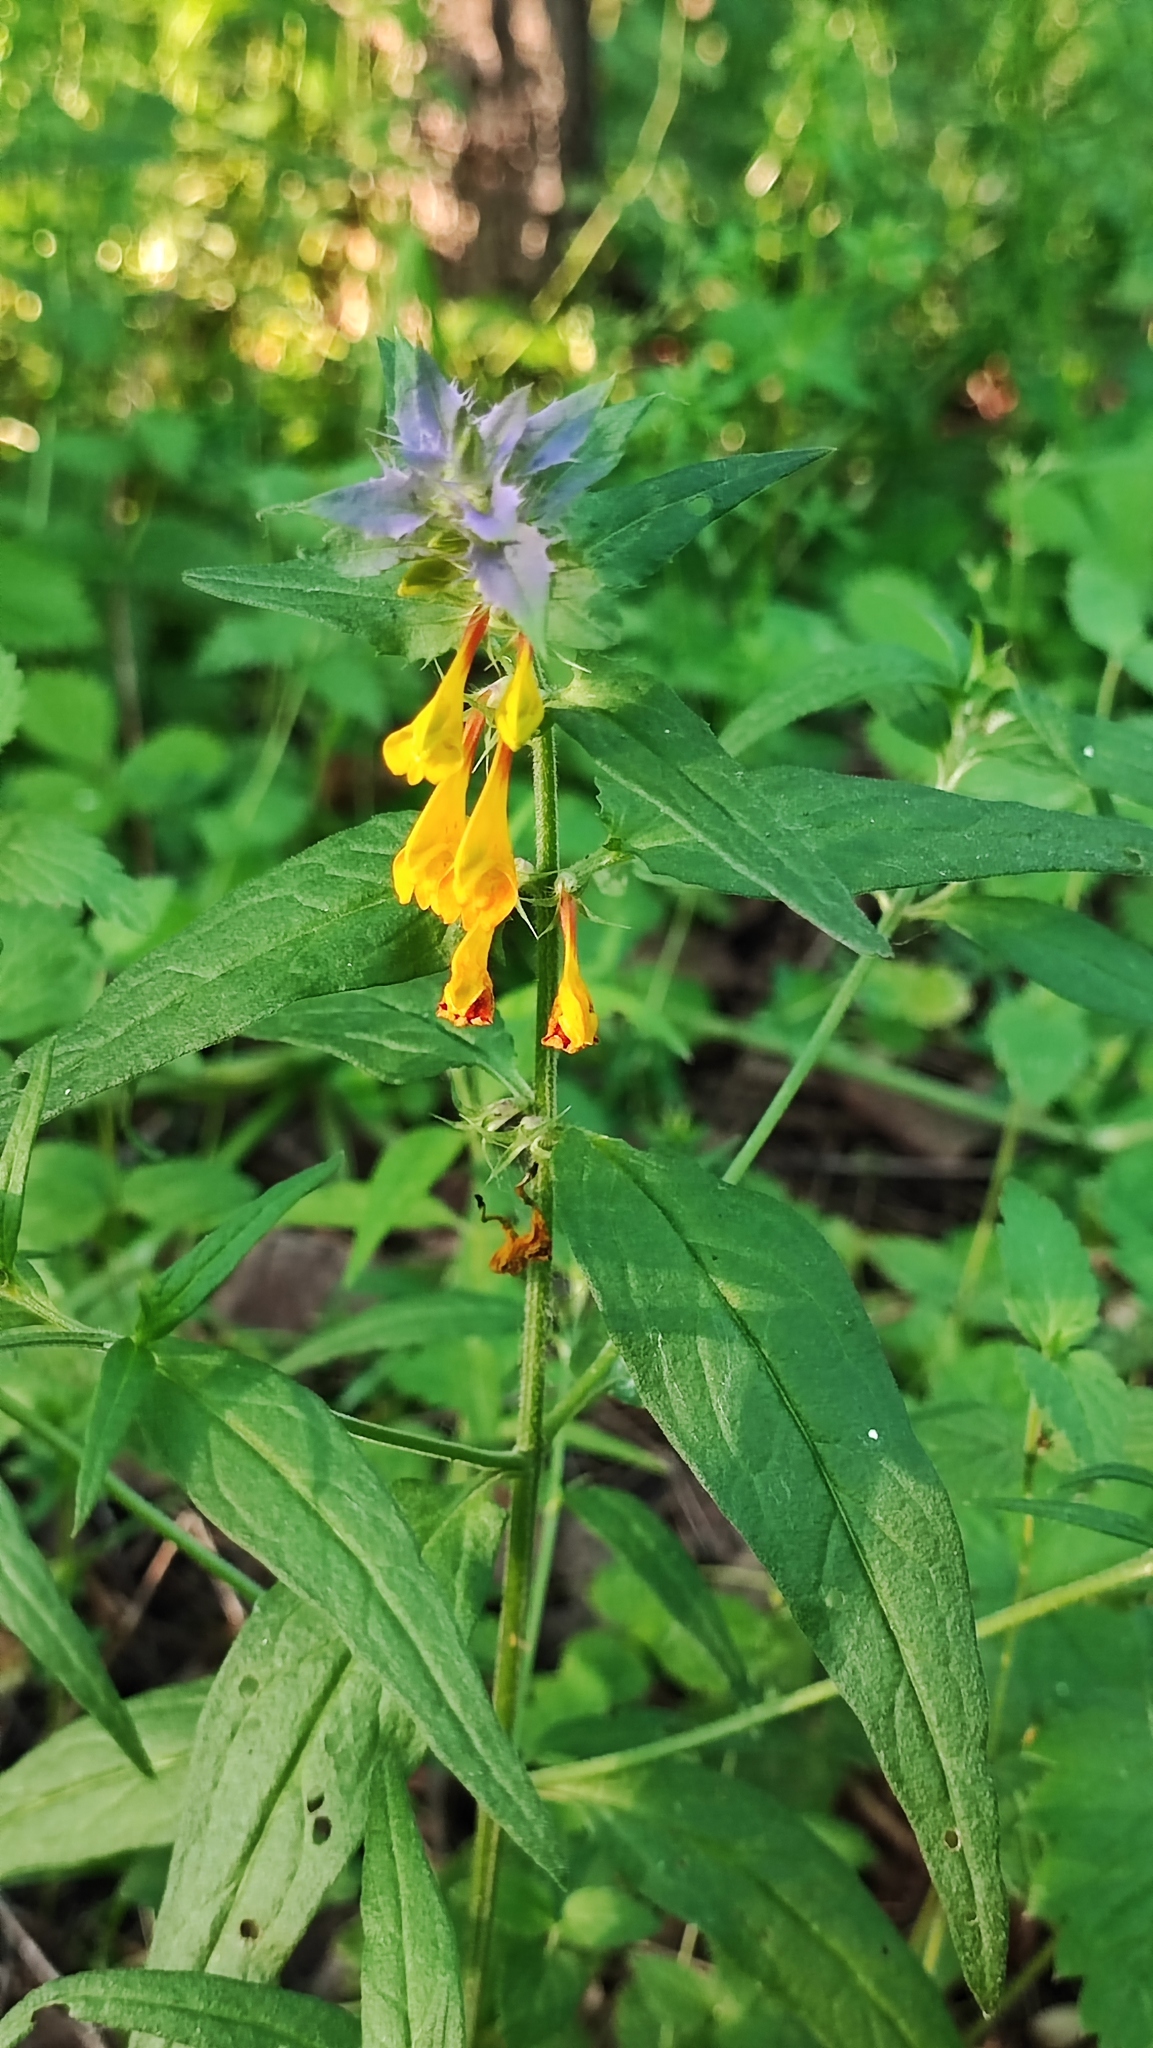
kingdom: Plantae
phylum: Tracheophyta
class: Magnoliopsida
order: Lamiales
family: Orobanchaceae
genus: Melampyrum
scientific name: Melampyrum nemorosum
